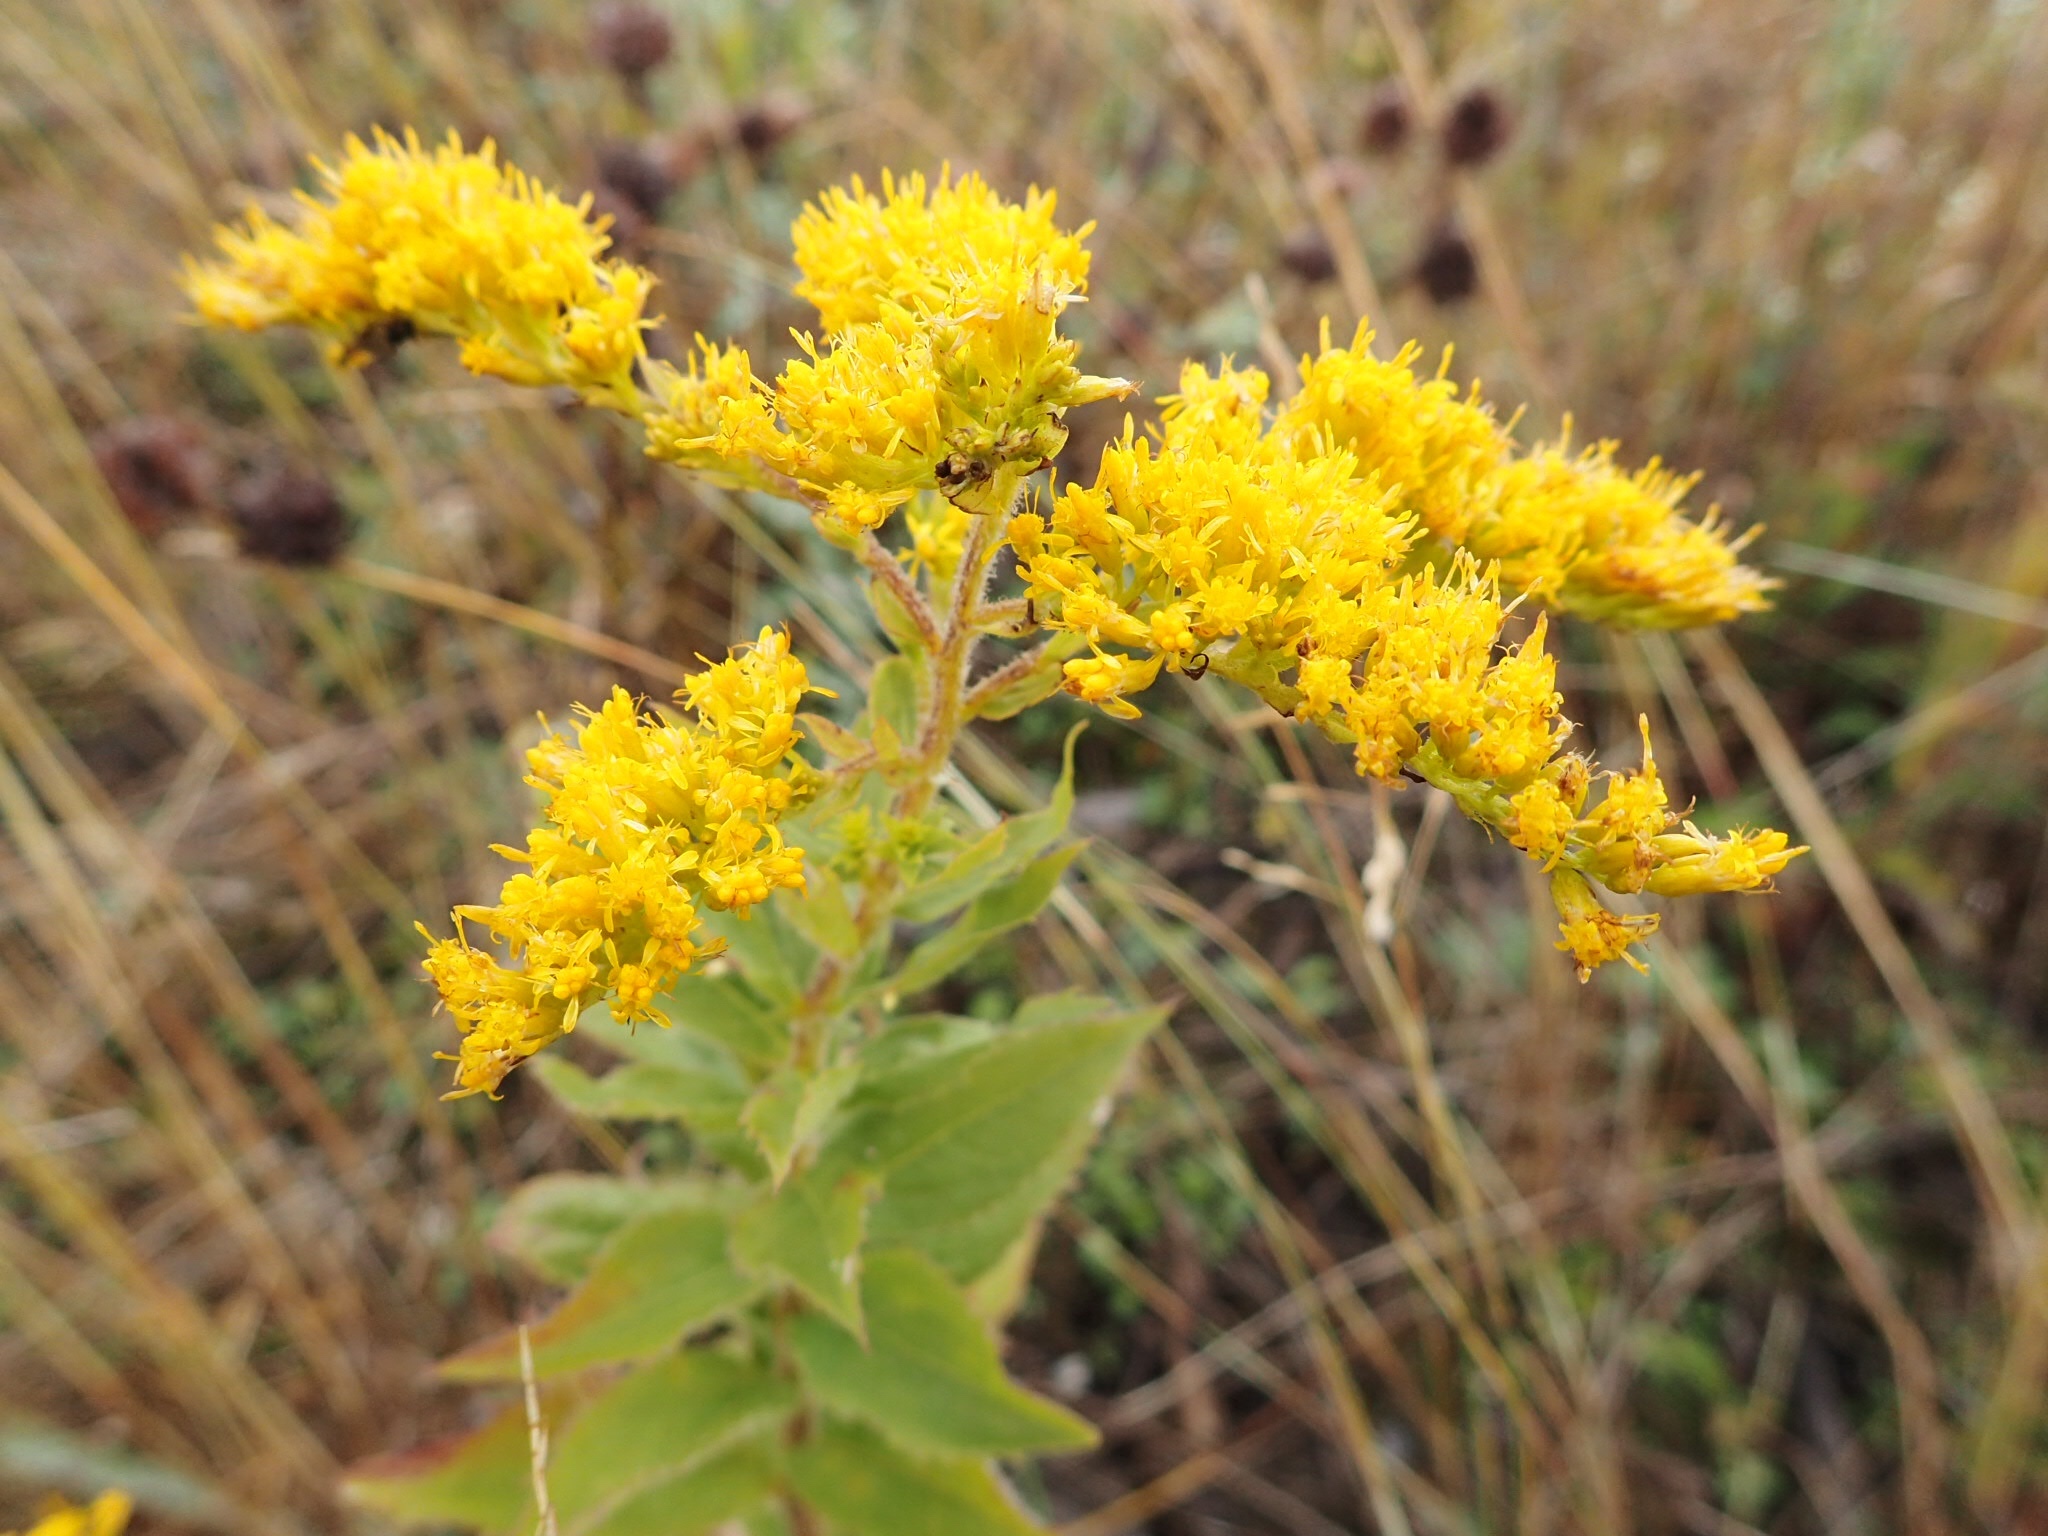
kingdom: Plantae
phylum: Tracheophyta
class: Magnoliopsida
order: Asterales
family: Asteraceae
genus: Solidago
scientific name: Solidago rugosa
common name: Rough-stemmed goldenrod
